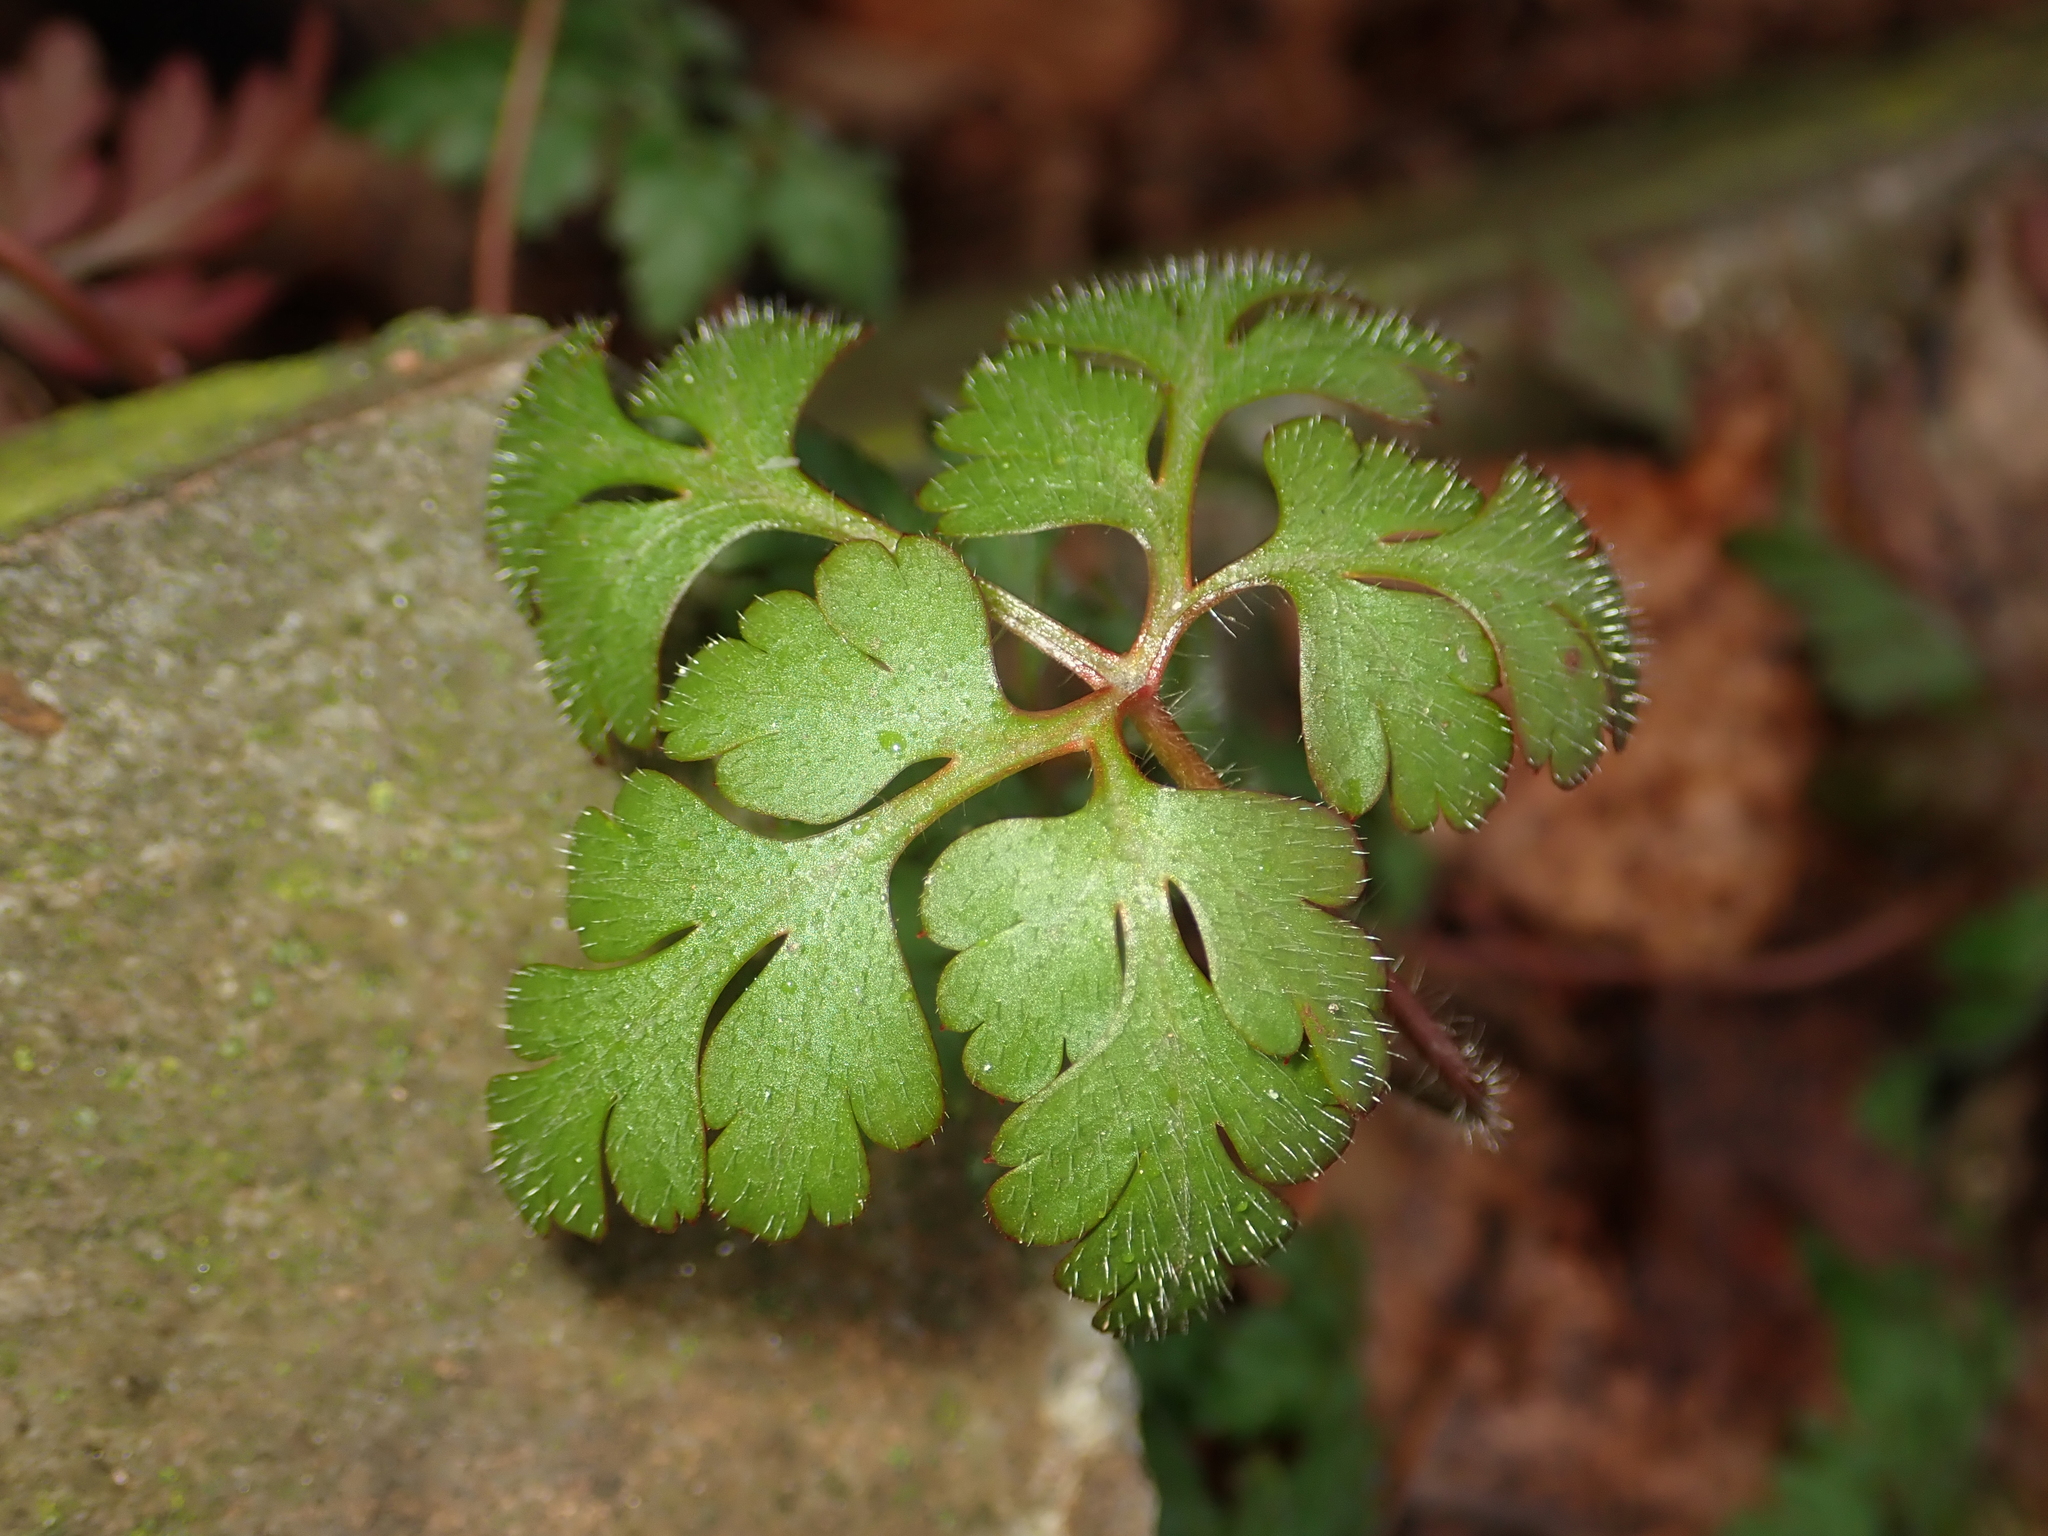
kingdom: Plantae
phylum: Tracheophyta
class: Magnoliopsida
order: Geraniales
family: Geraniaceae
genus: Geranium
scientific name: Geranium robertianum
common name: Herb-robert
